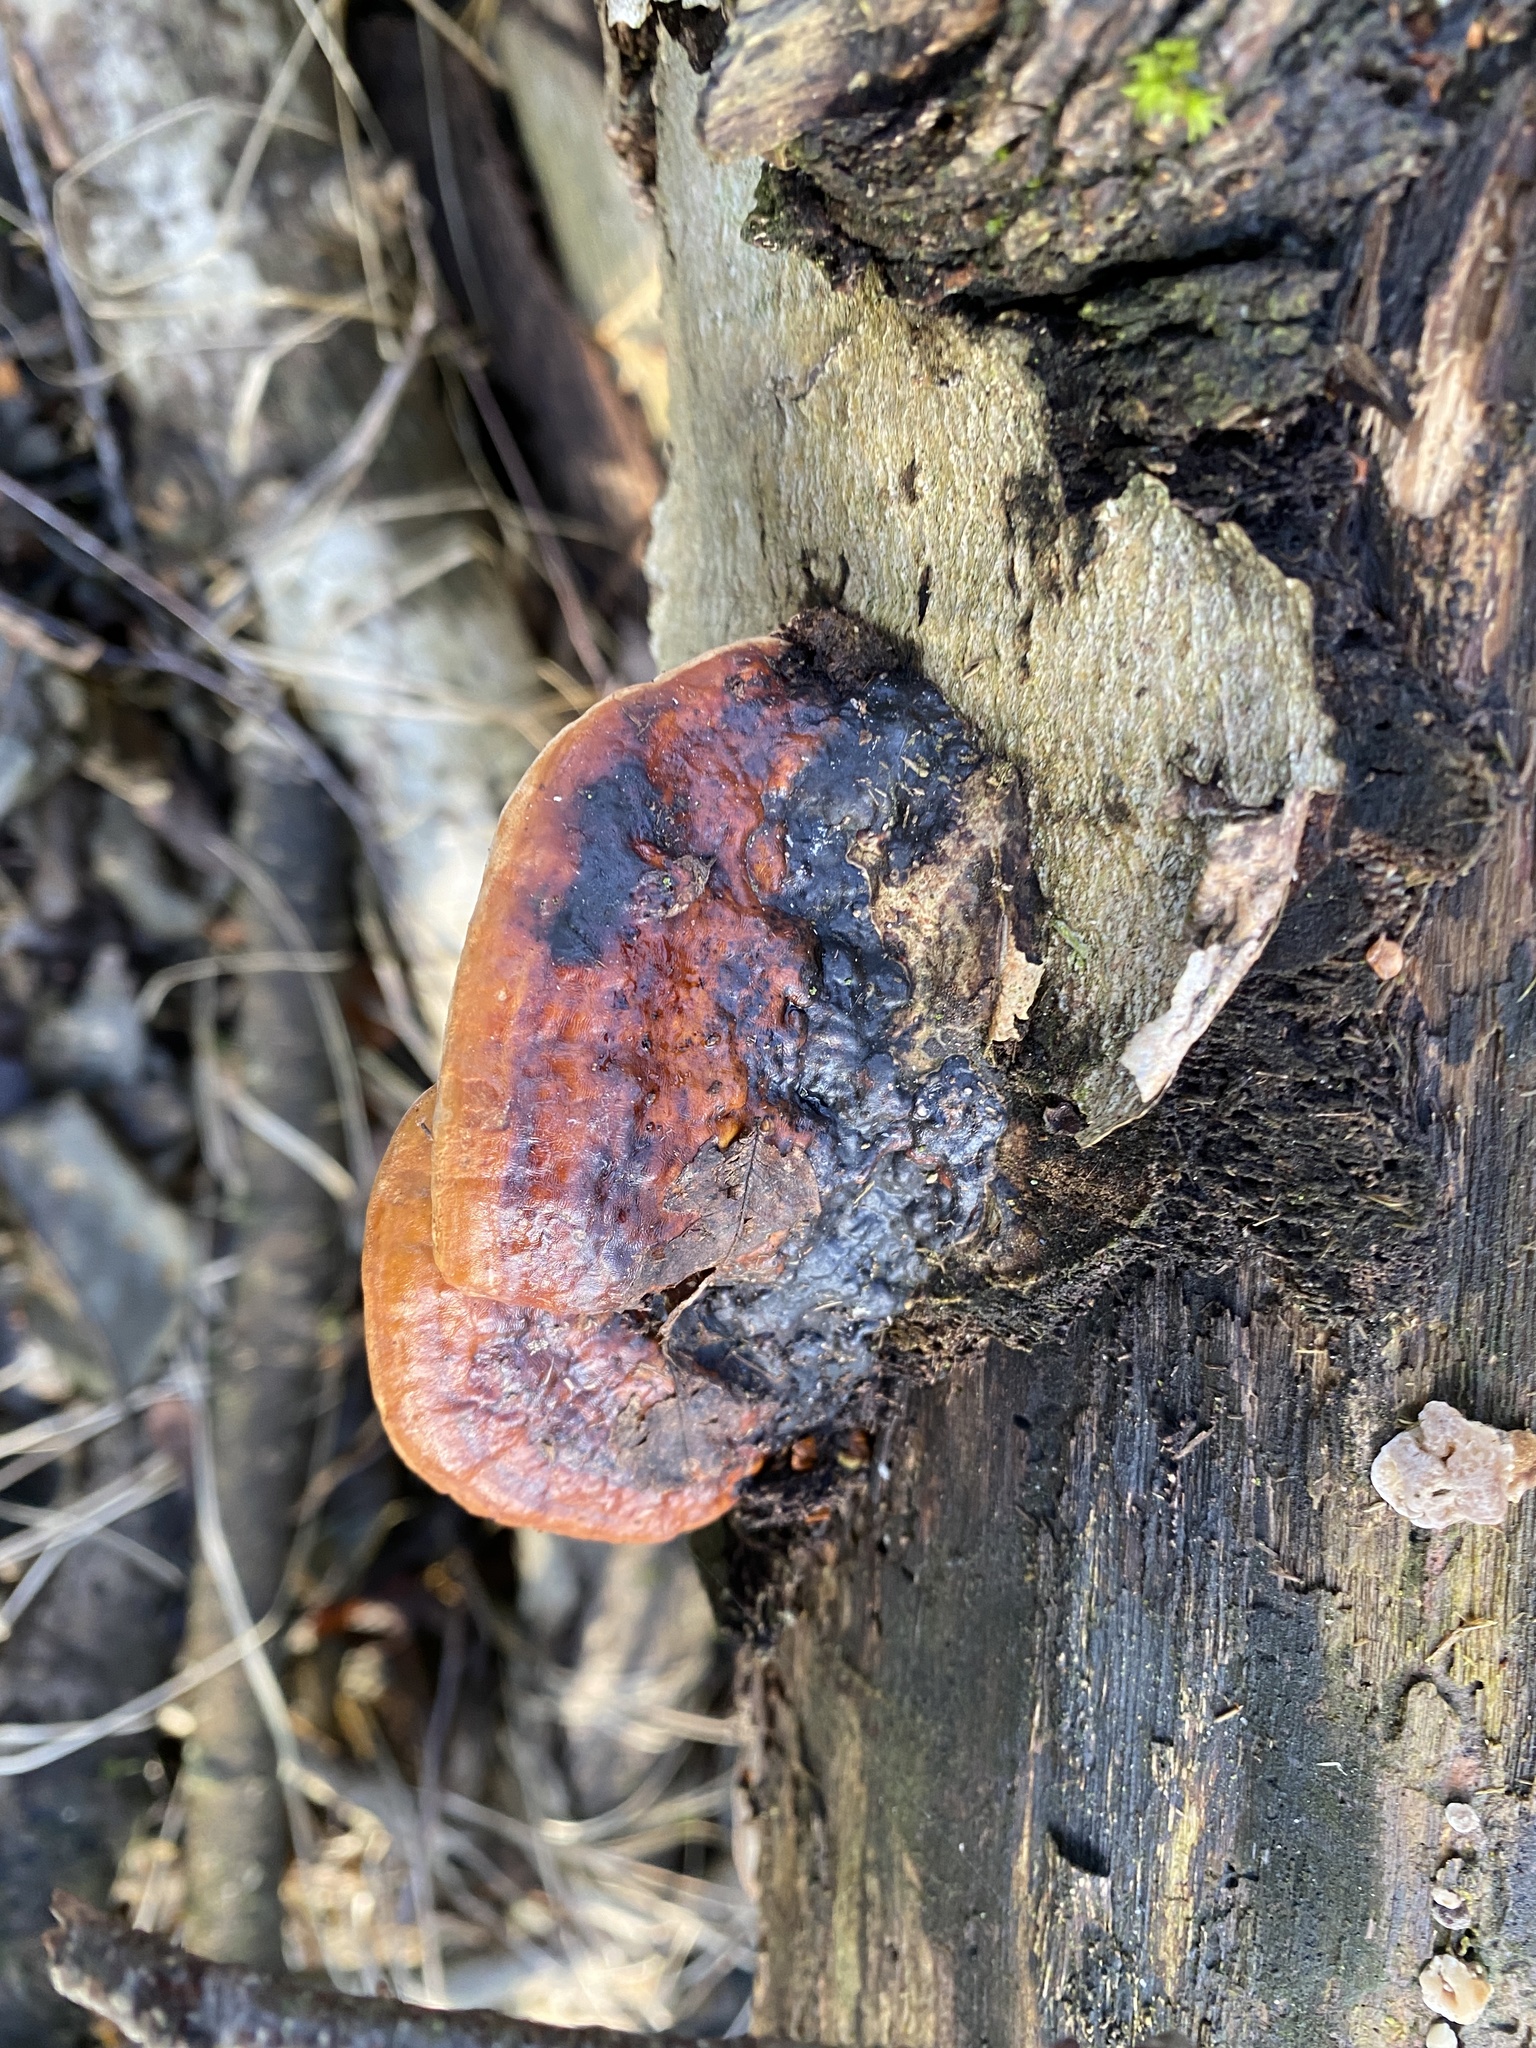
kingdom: Fungi
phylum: Basidiomycota
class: Agaricomycetes
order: Polyporales
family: Fomitopsidaceae
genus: Fomitopsis
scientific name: Fomitopsis pinicola
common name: Red-belted bracket
